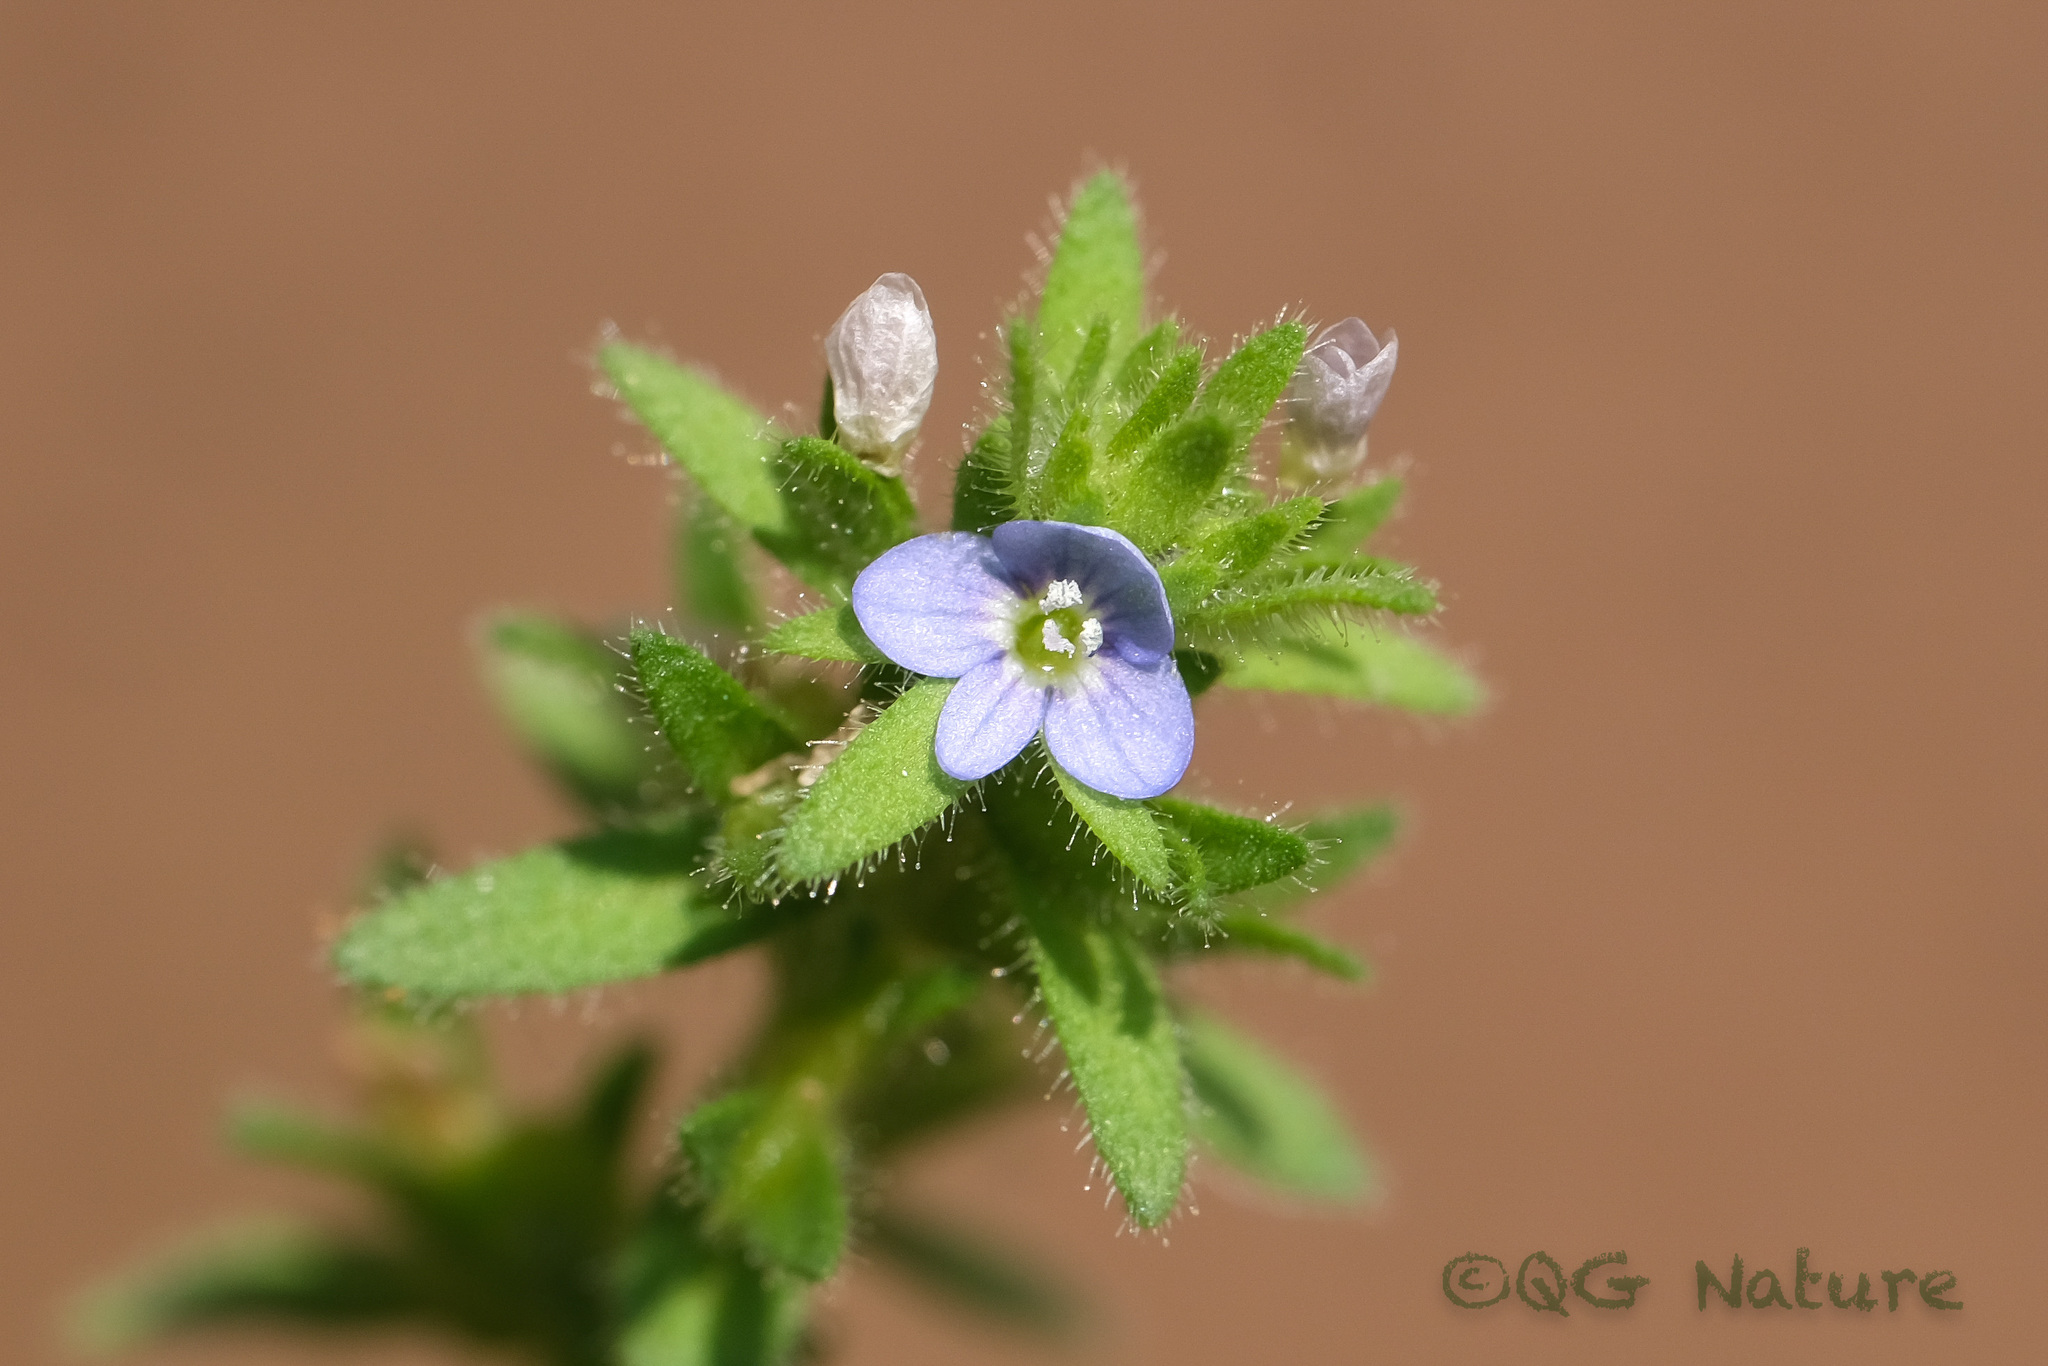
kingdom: Plantae
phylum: Tracheophyta
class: Magnoliopsida
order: Lamiales
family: Plantaginaceae
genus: Veronica
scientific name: Veronica arvensis
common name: Corn speedwell
